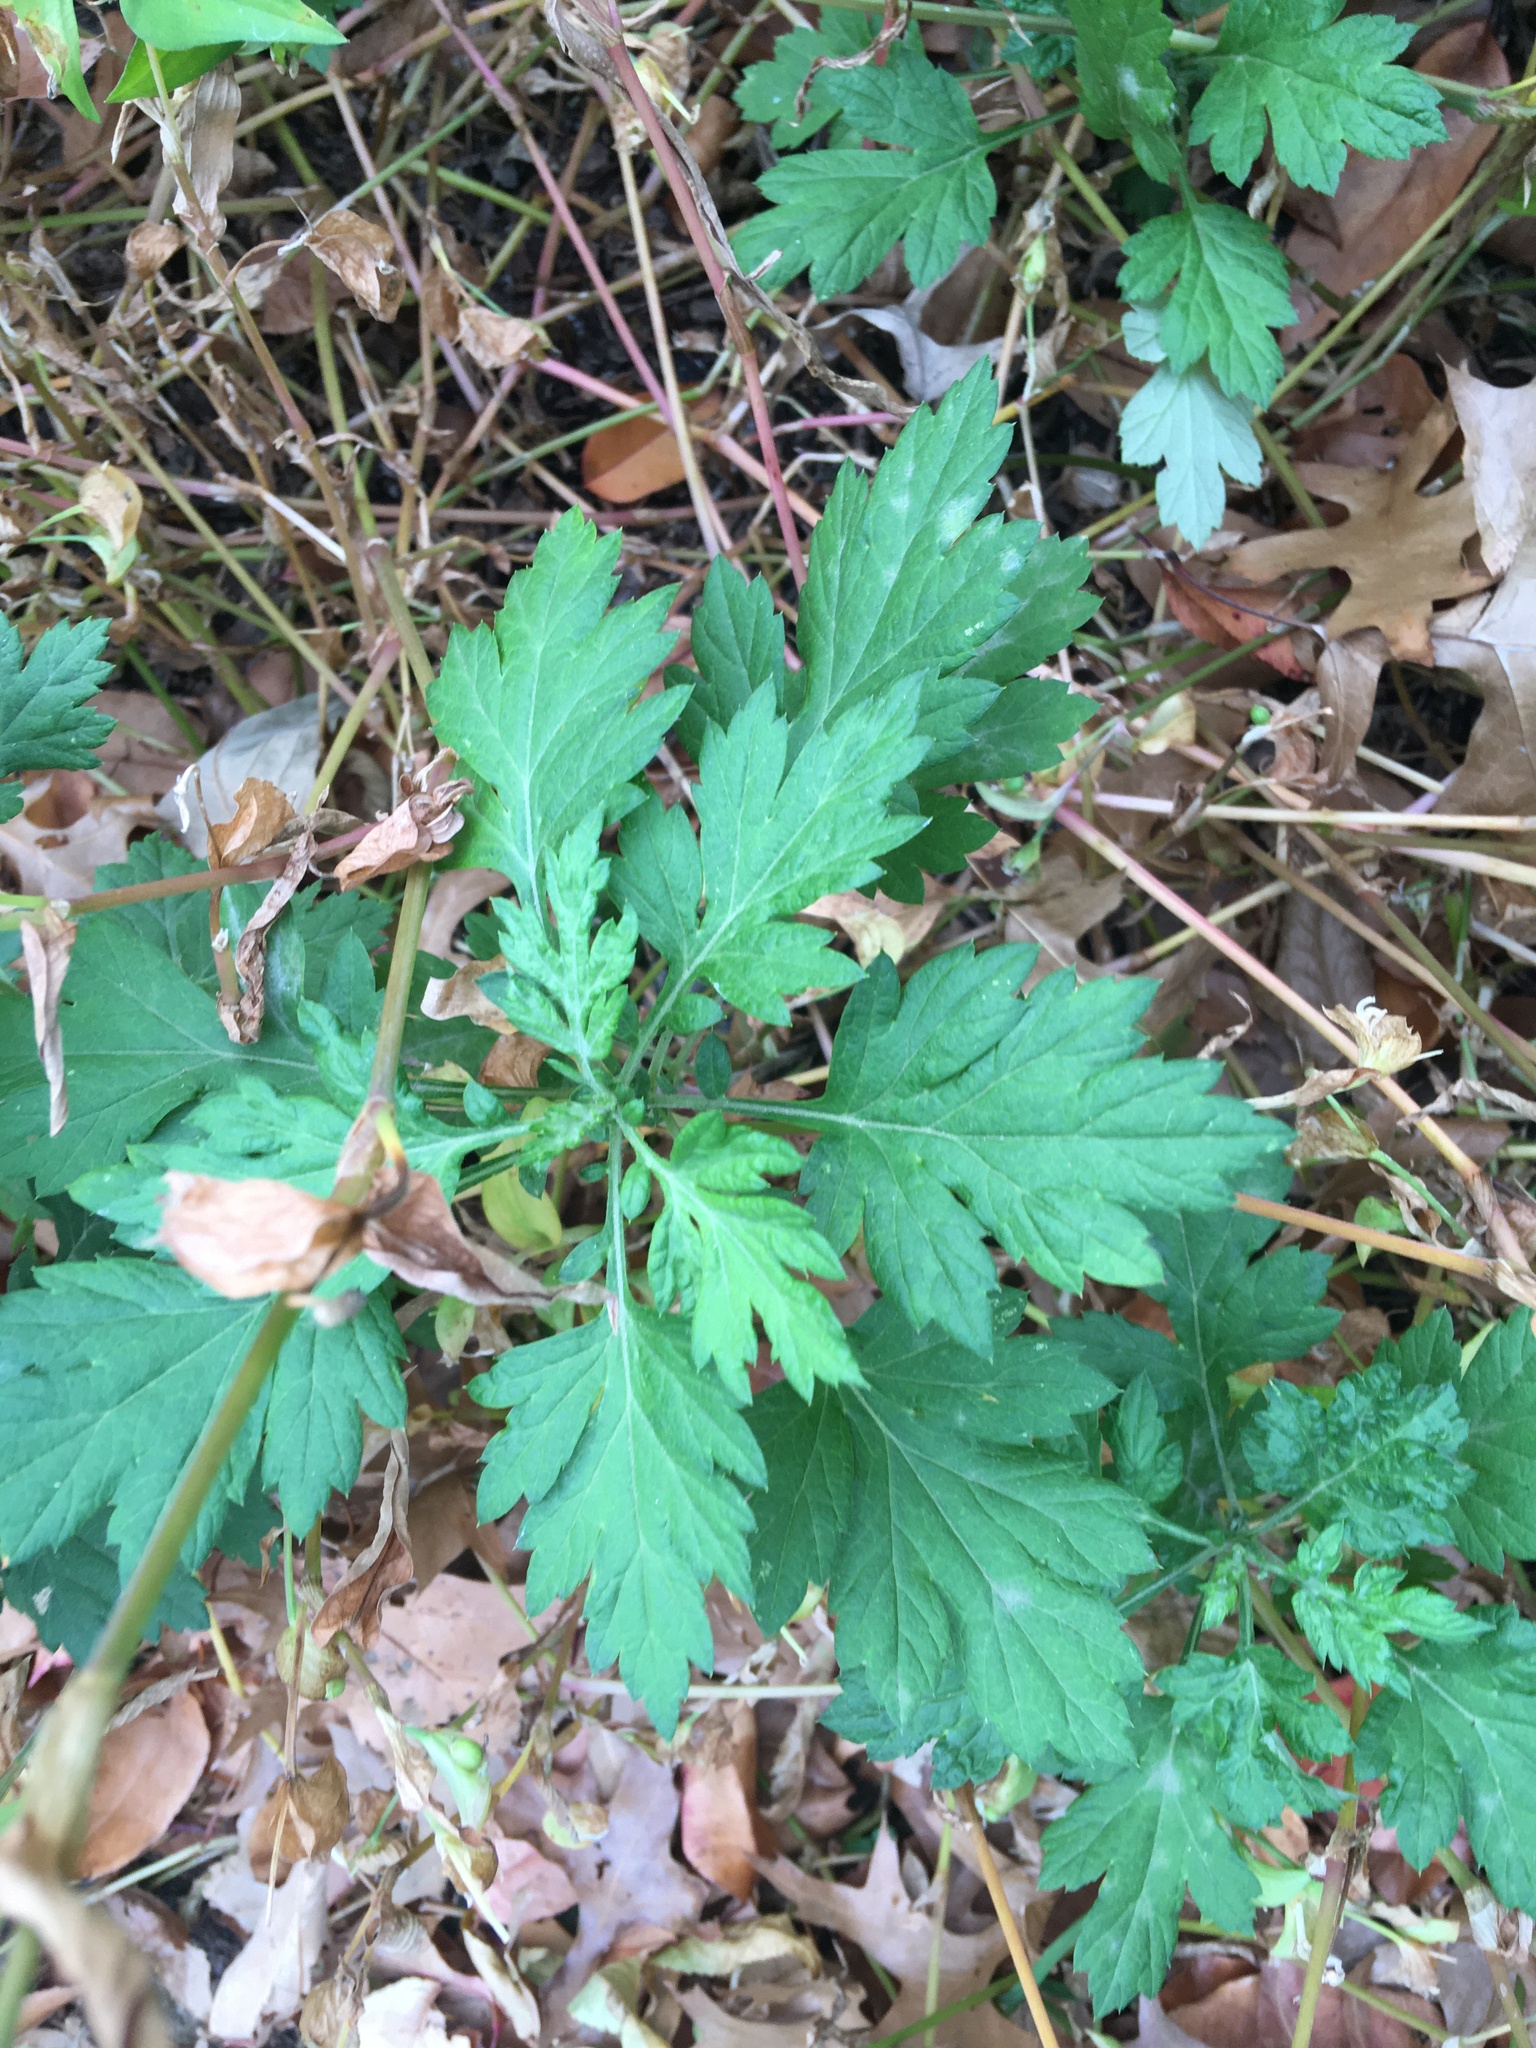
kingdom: Plantae
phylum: Tracheophyta
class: Magnoliopsida
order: Asterales
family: Asteraceae
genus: Artemisia
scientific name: Artemisia vulgaris
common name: Mugwort
